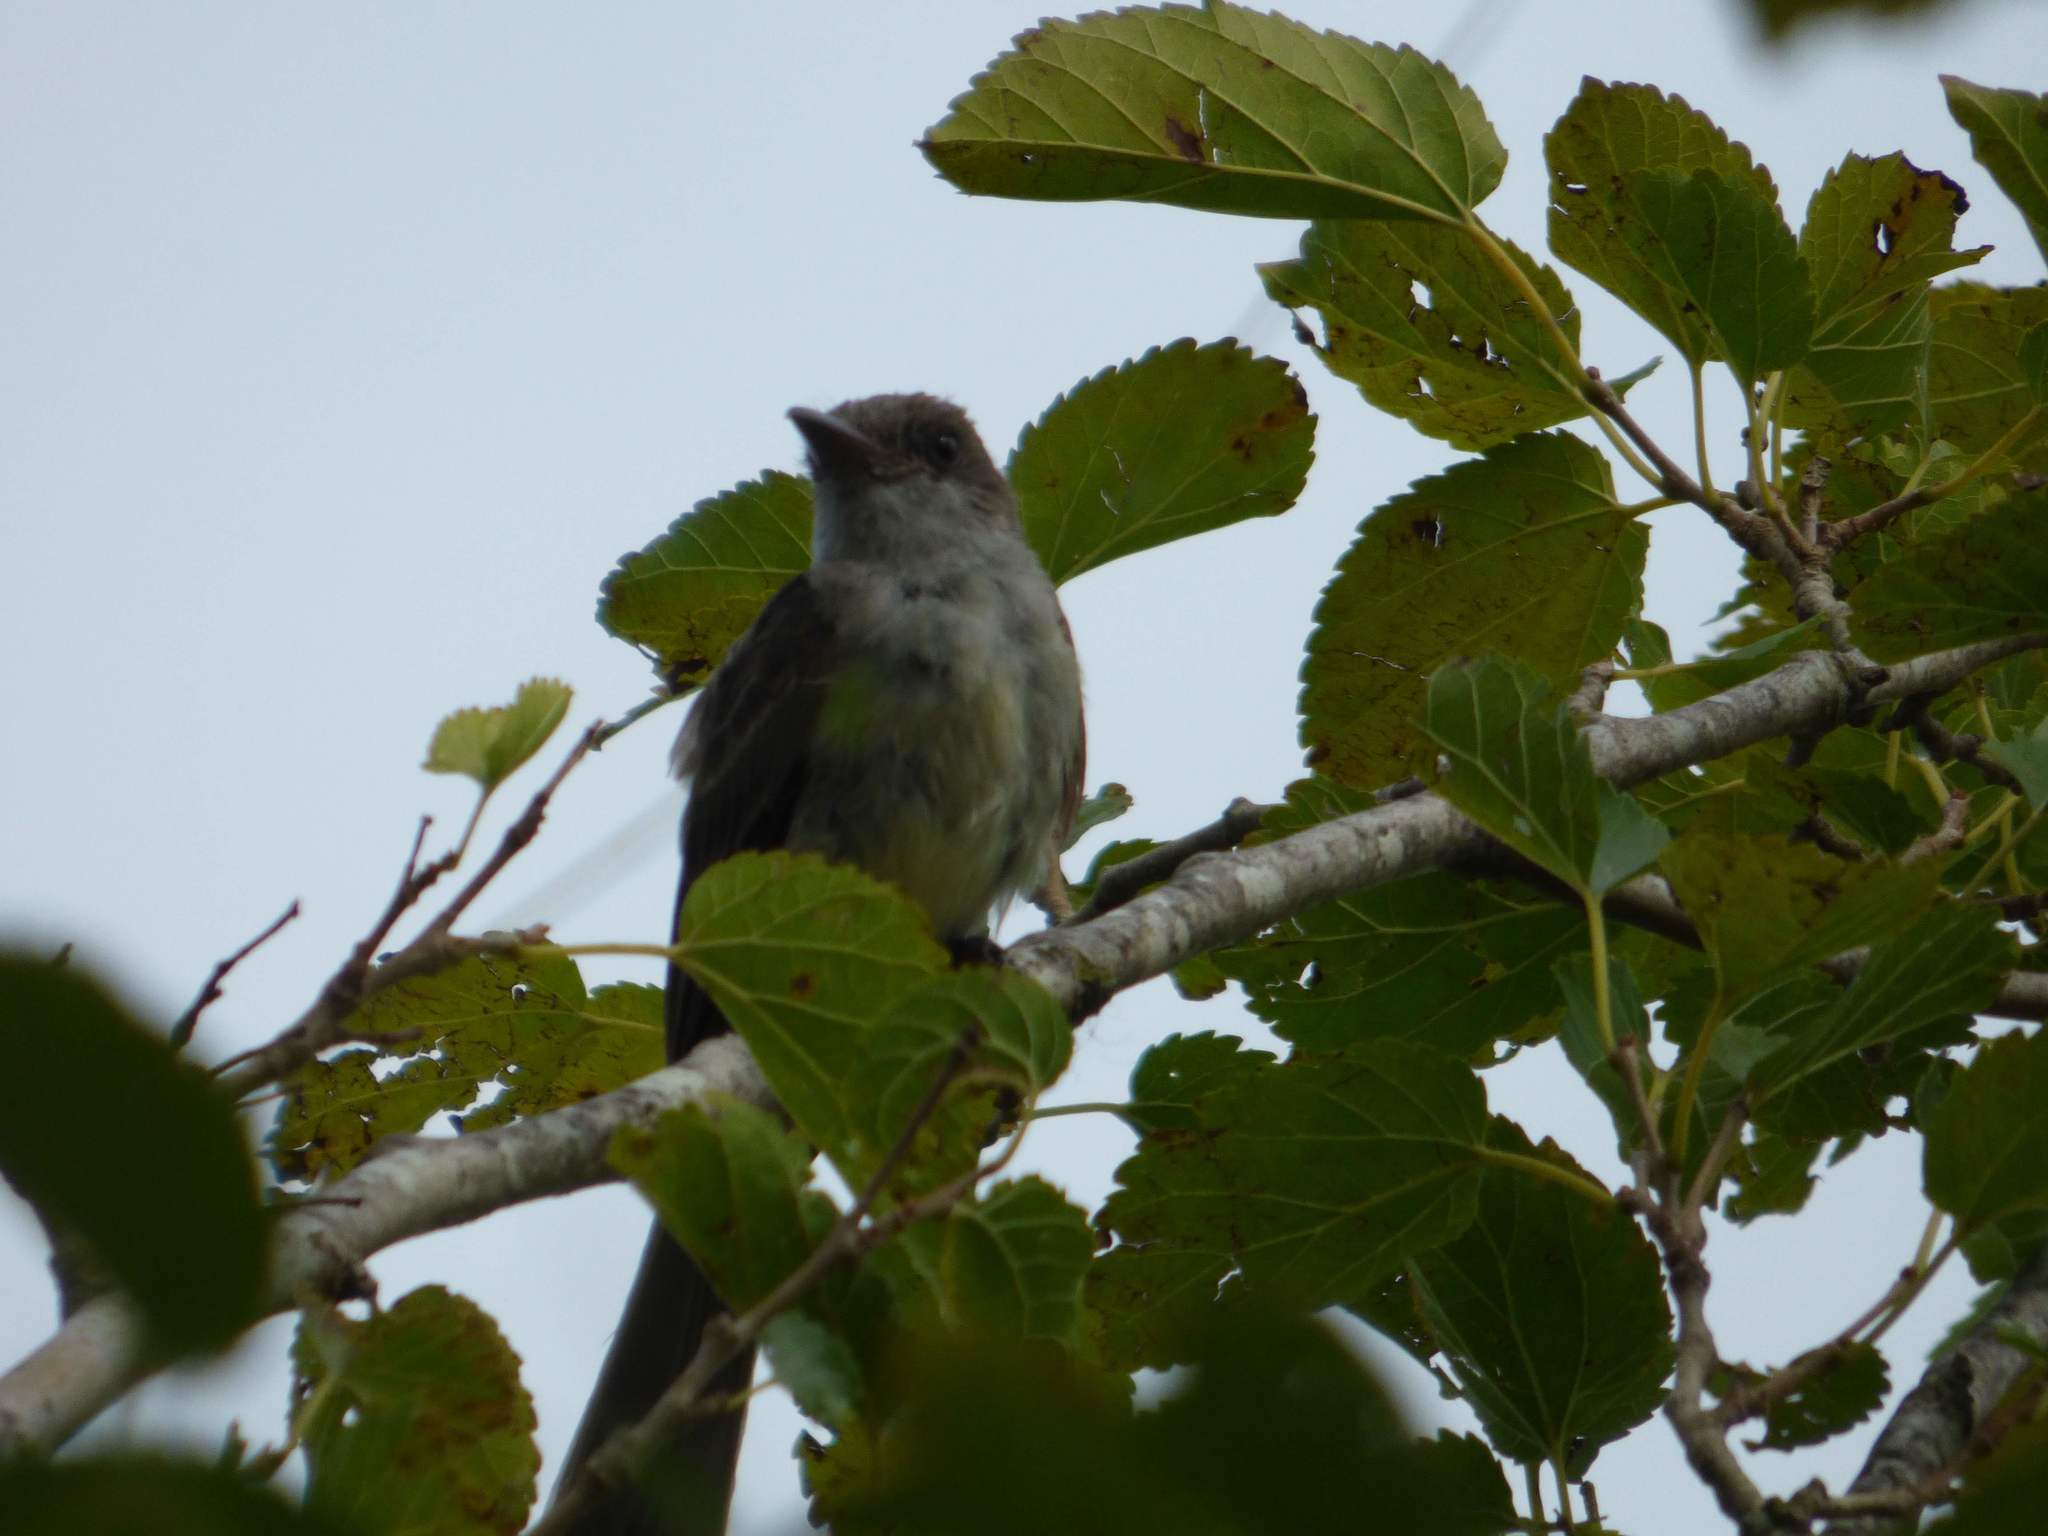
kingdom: Animalia
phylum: Chordata
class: Aves
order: Passeriformes
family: Tyrannidae
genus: Myiarchus
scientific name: Myiarchus swainsoni
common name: Swainson's flycatcher
